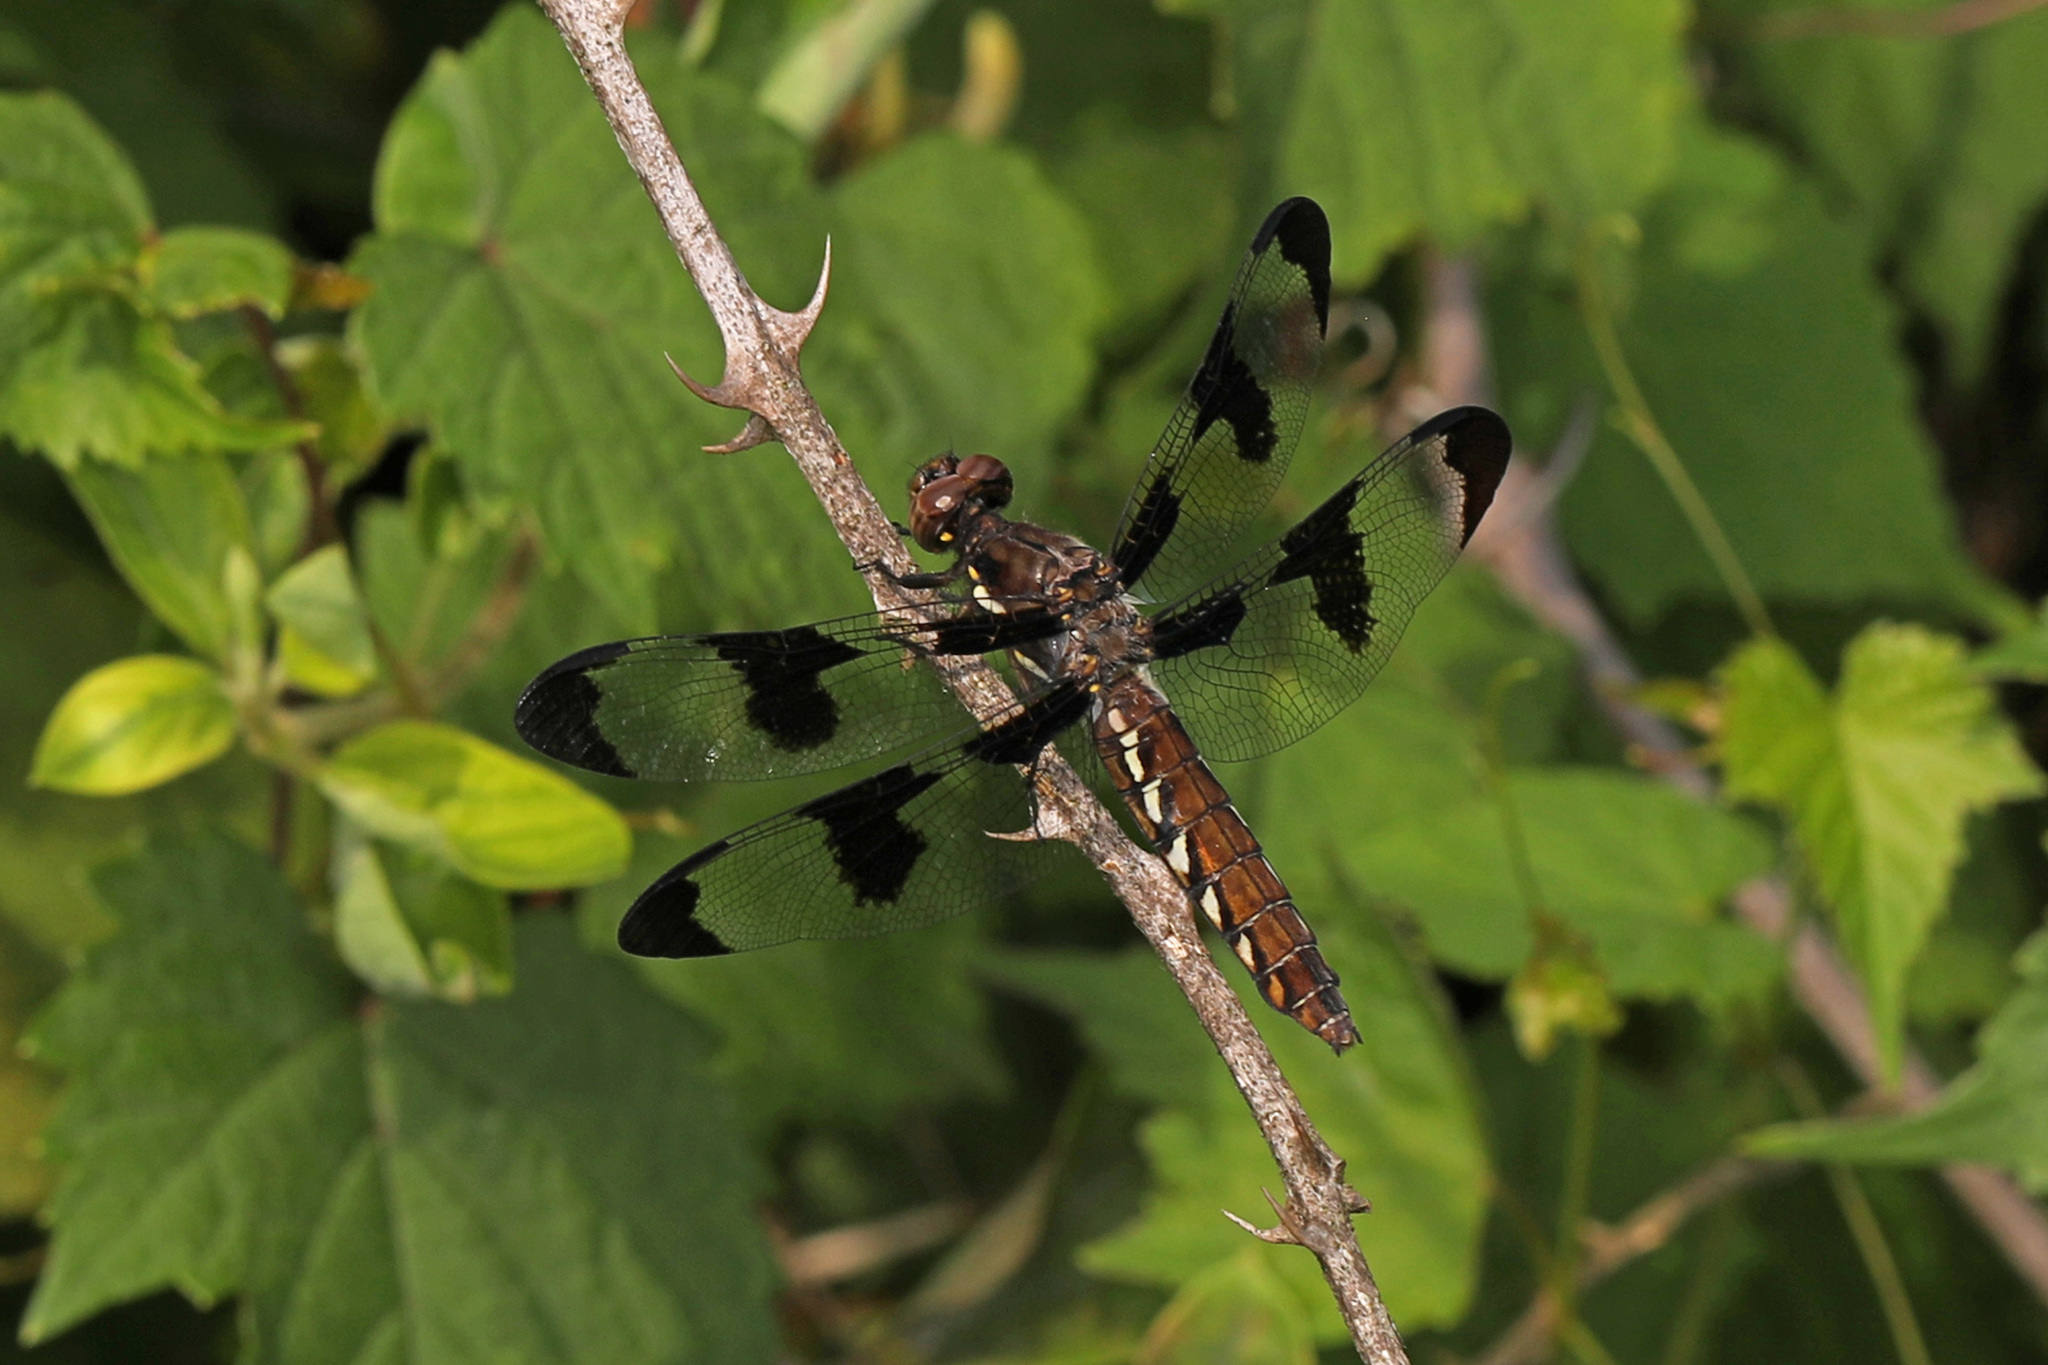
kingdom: Animalia
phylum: Arthropoda
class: Insecta
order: Odonata
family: Libellulidae
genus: Plathemis
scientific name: Plathemis lydia
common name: Common whitetail
